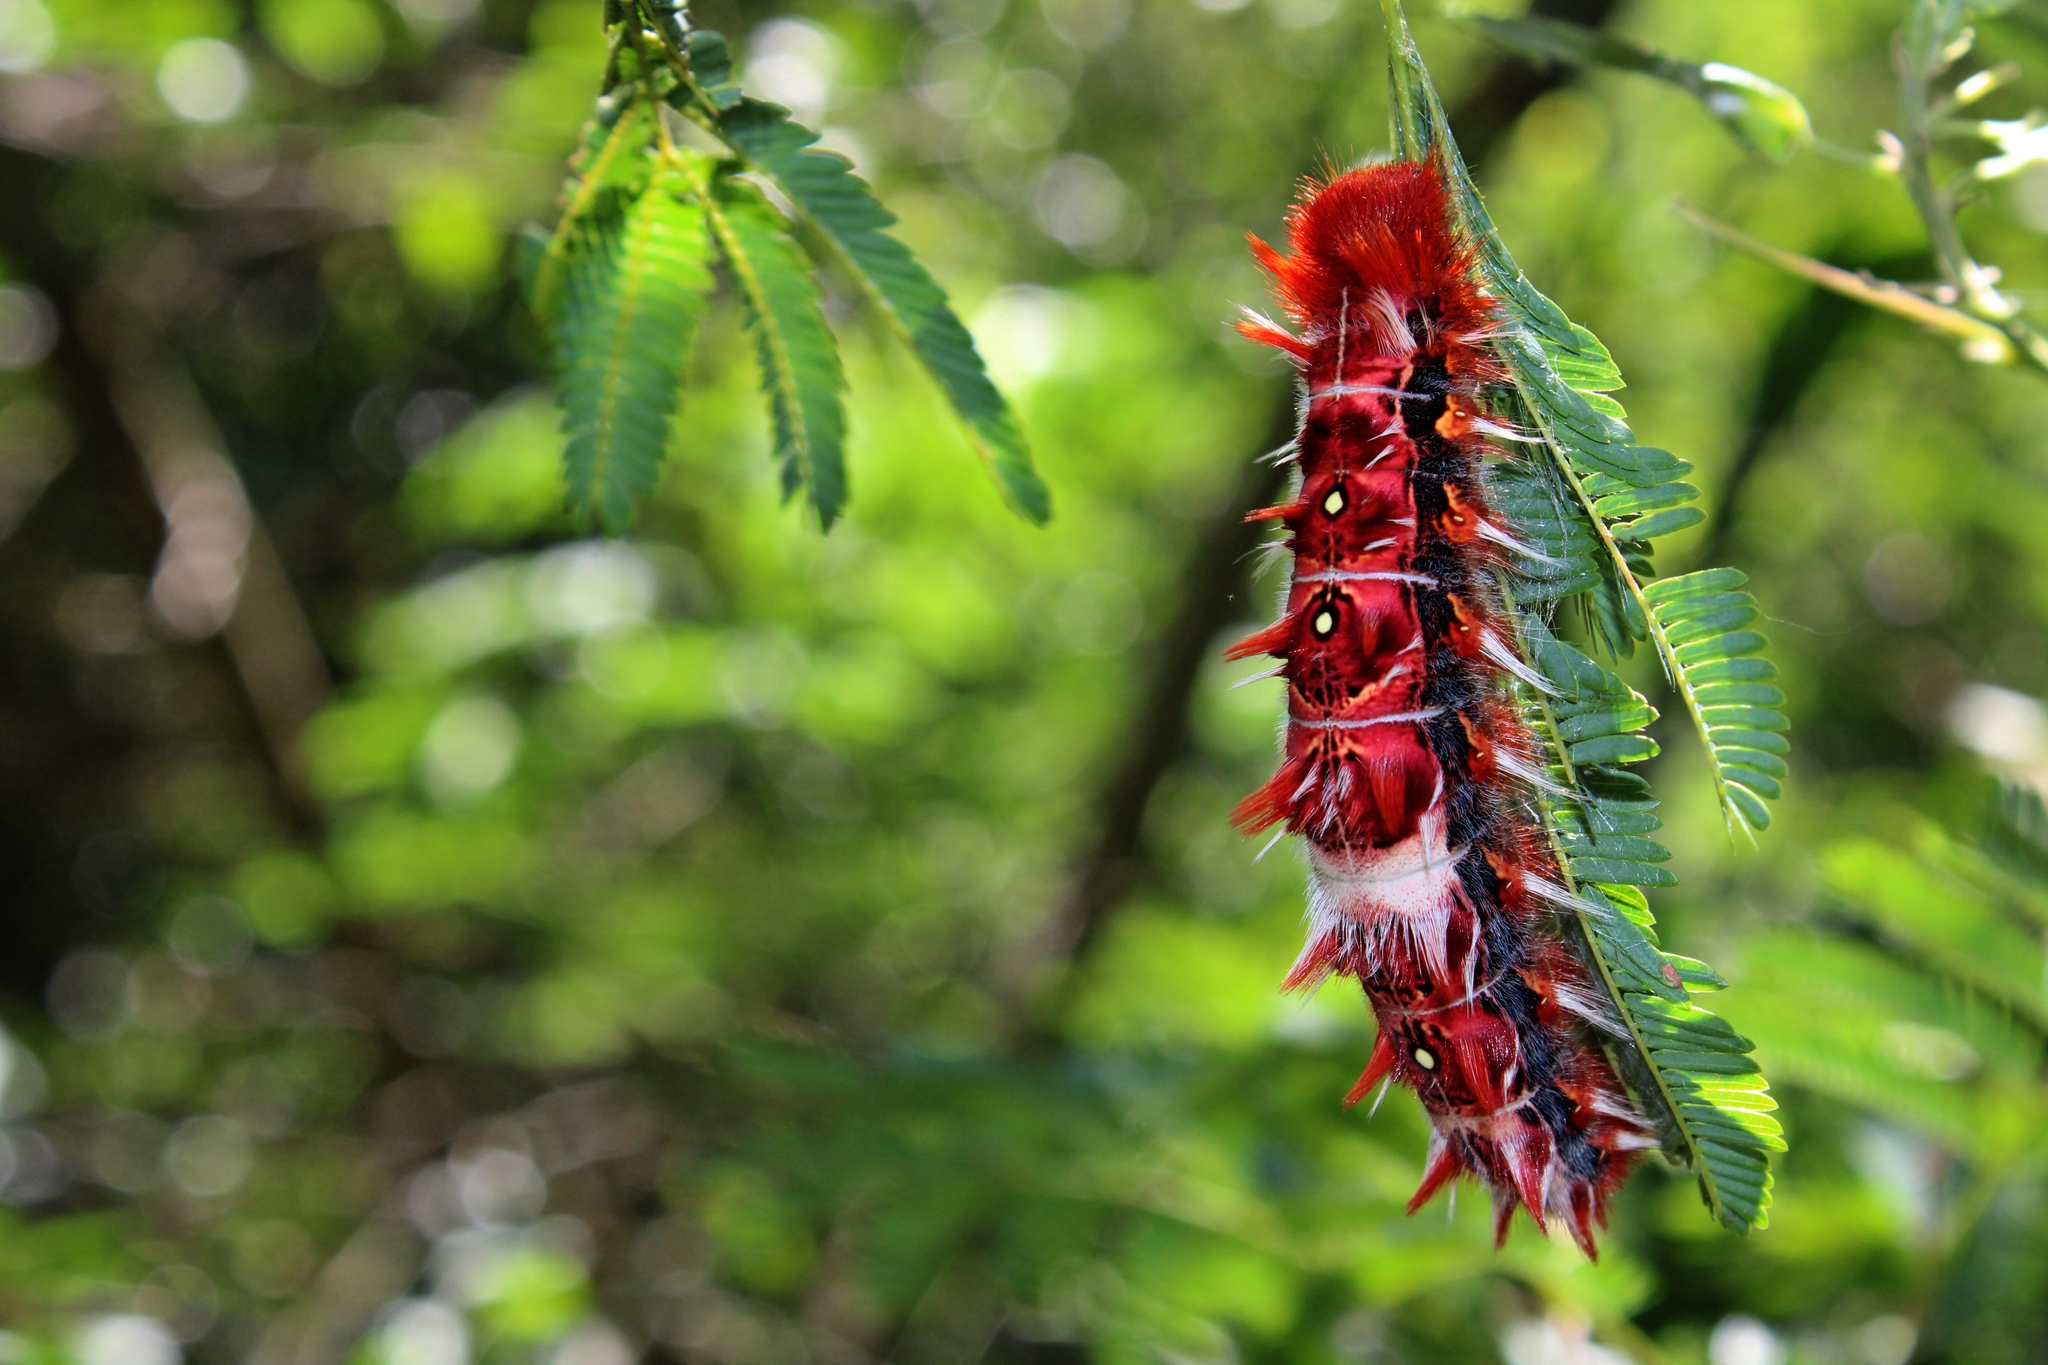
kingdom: Animalia
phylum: Arthropoda
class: Insecta
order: Lepidoptera
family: Nymphalidae
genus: Morpho
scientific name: Morpho epistrophus
